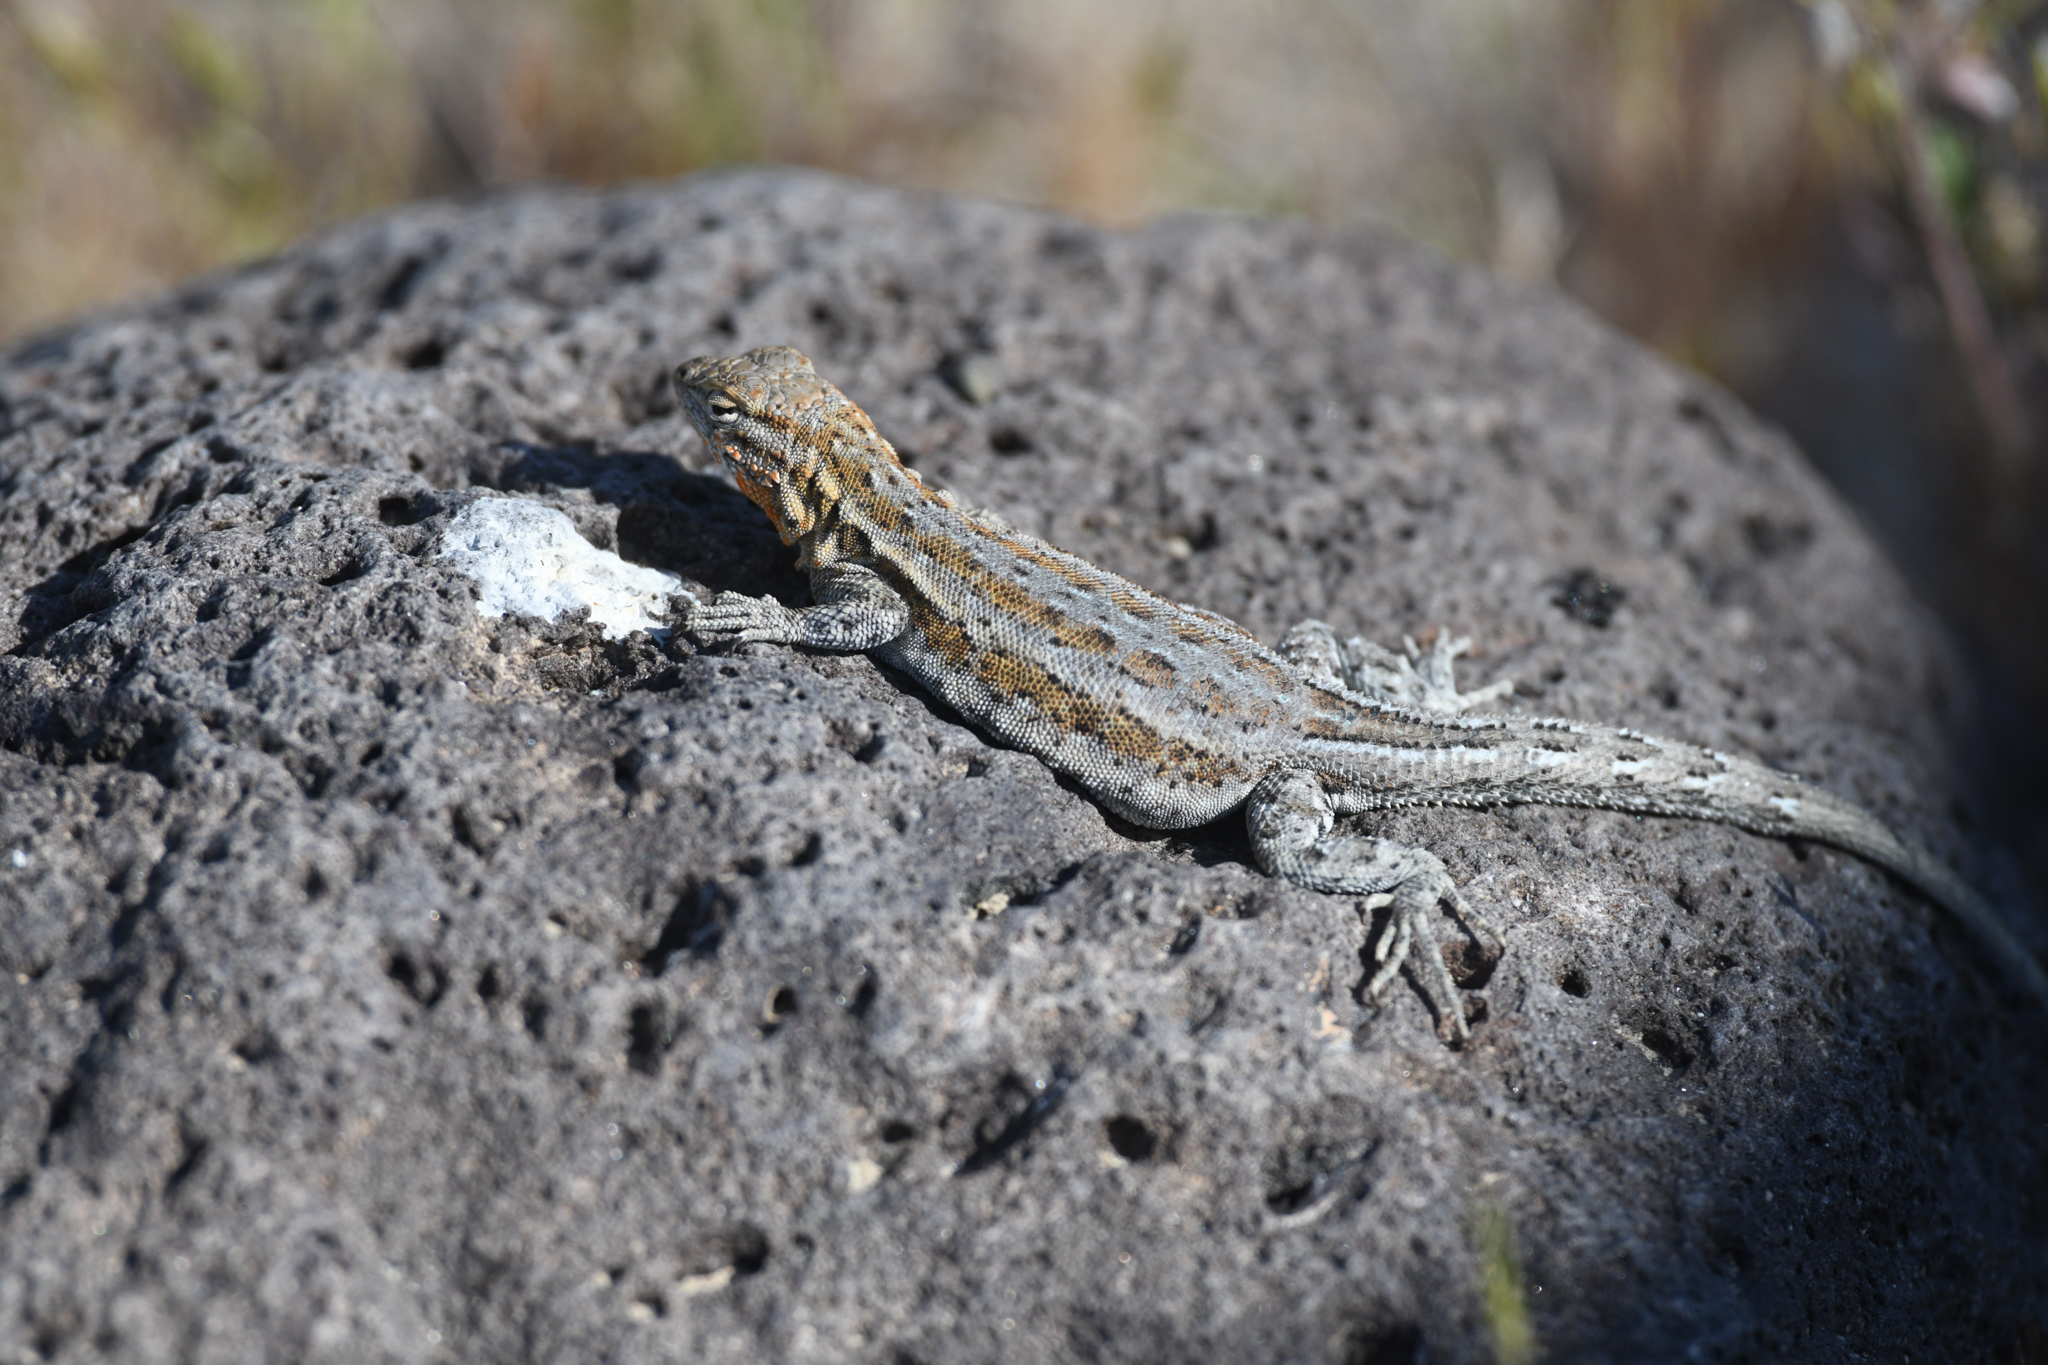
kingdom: Animalia
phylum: Chordata
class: Squamata
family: Phrynosomatidae
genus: Uta
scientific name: Uta stansburiana
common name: Side-blotched lizard
